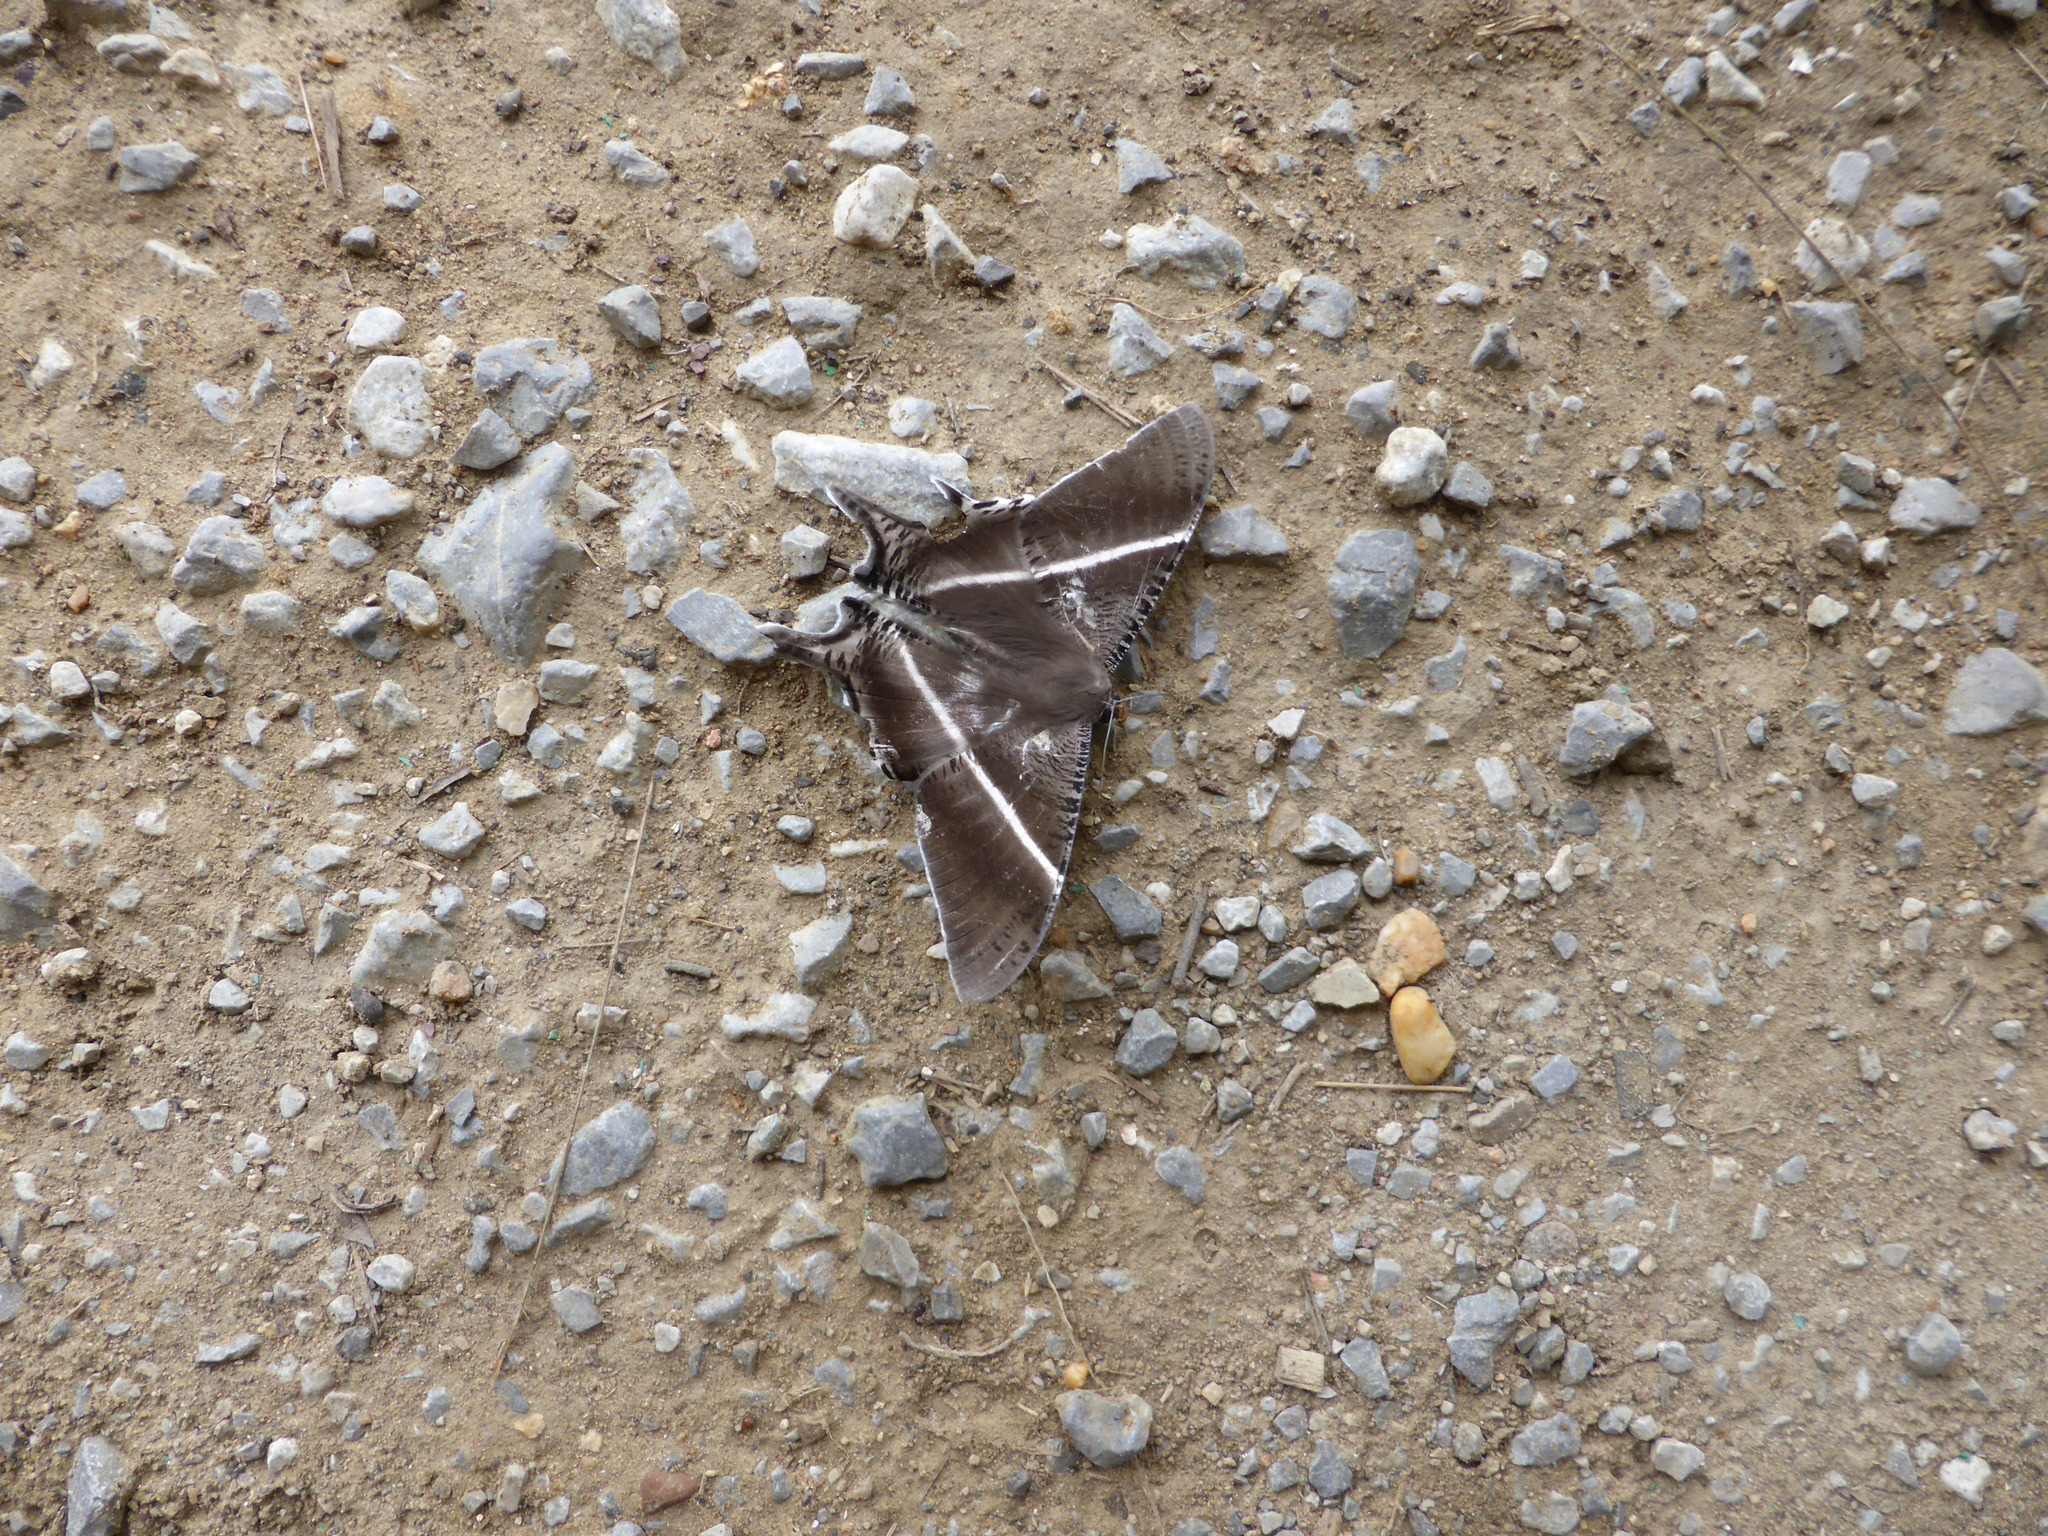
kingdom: Animalia
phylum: Arthropoda
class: Insecta
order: Lepidoptera
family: Uraniidae
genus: Lyssa
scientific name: Lyssa zampa
